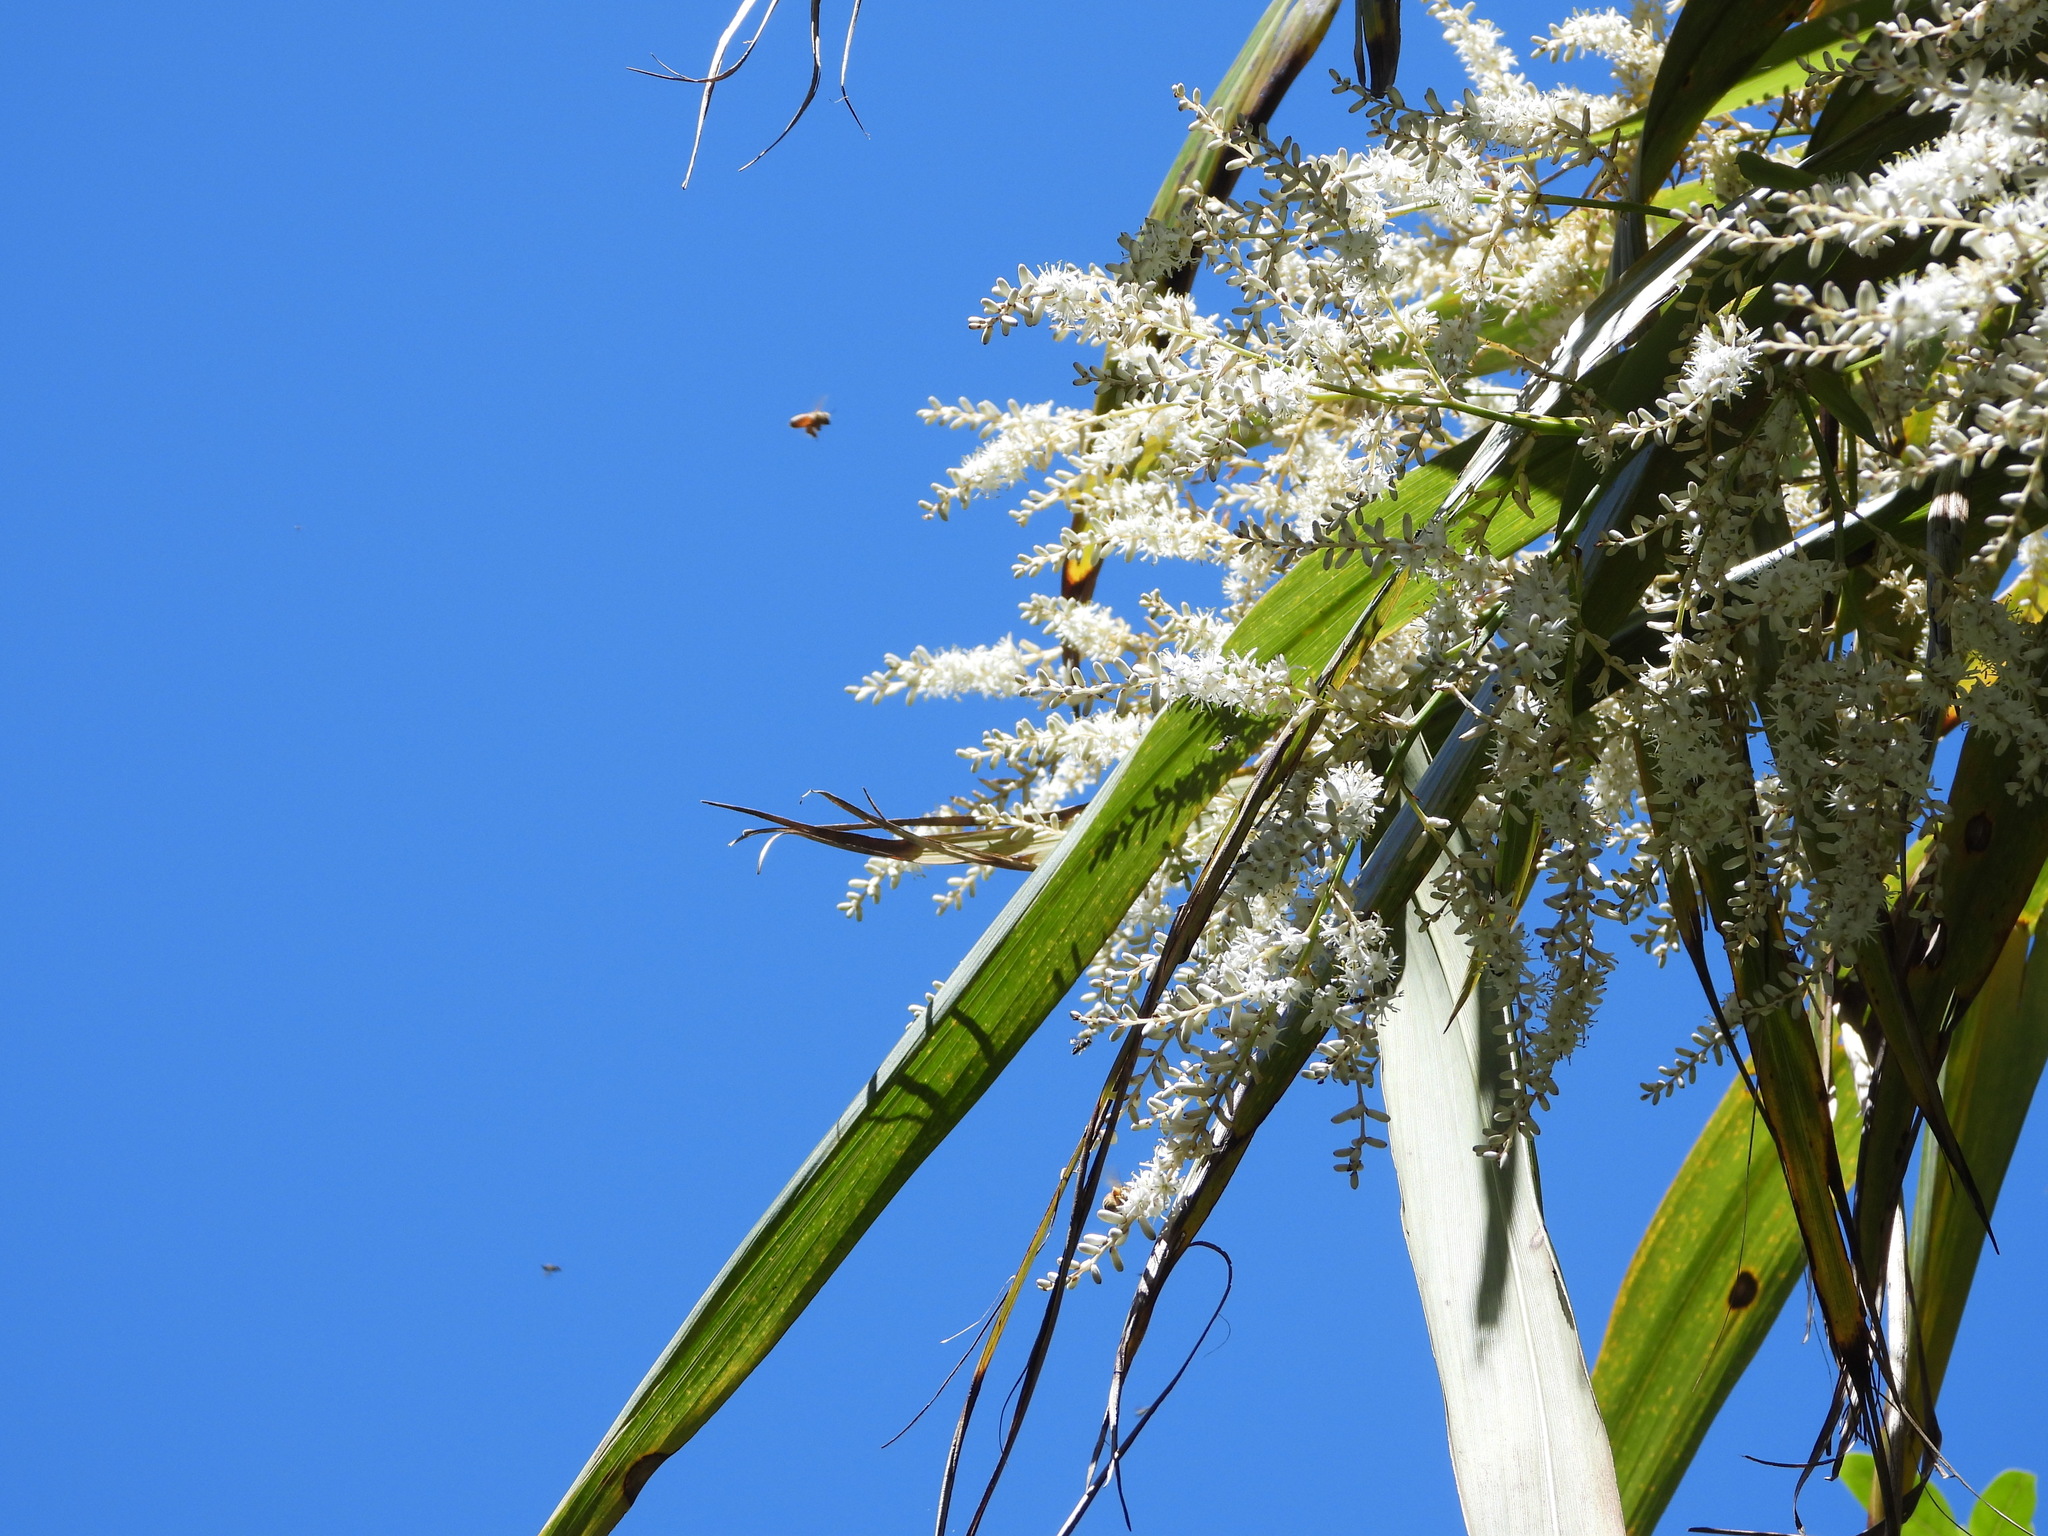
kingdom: Plantae
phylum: Tracheophyta
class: Liliopsida
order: Asparagales
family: Asparagaceae
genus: Cordyline
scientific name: Cordyline banksii
